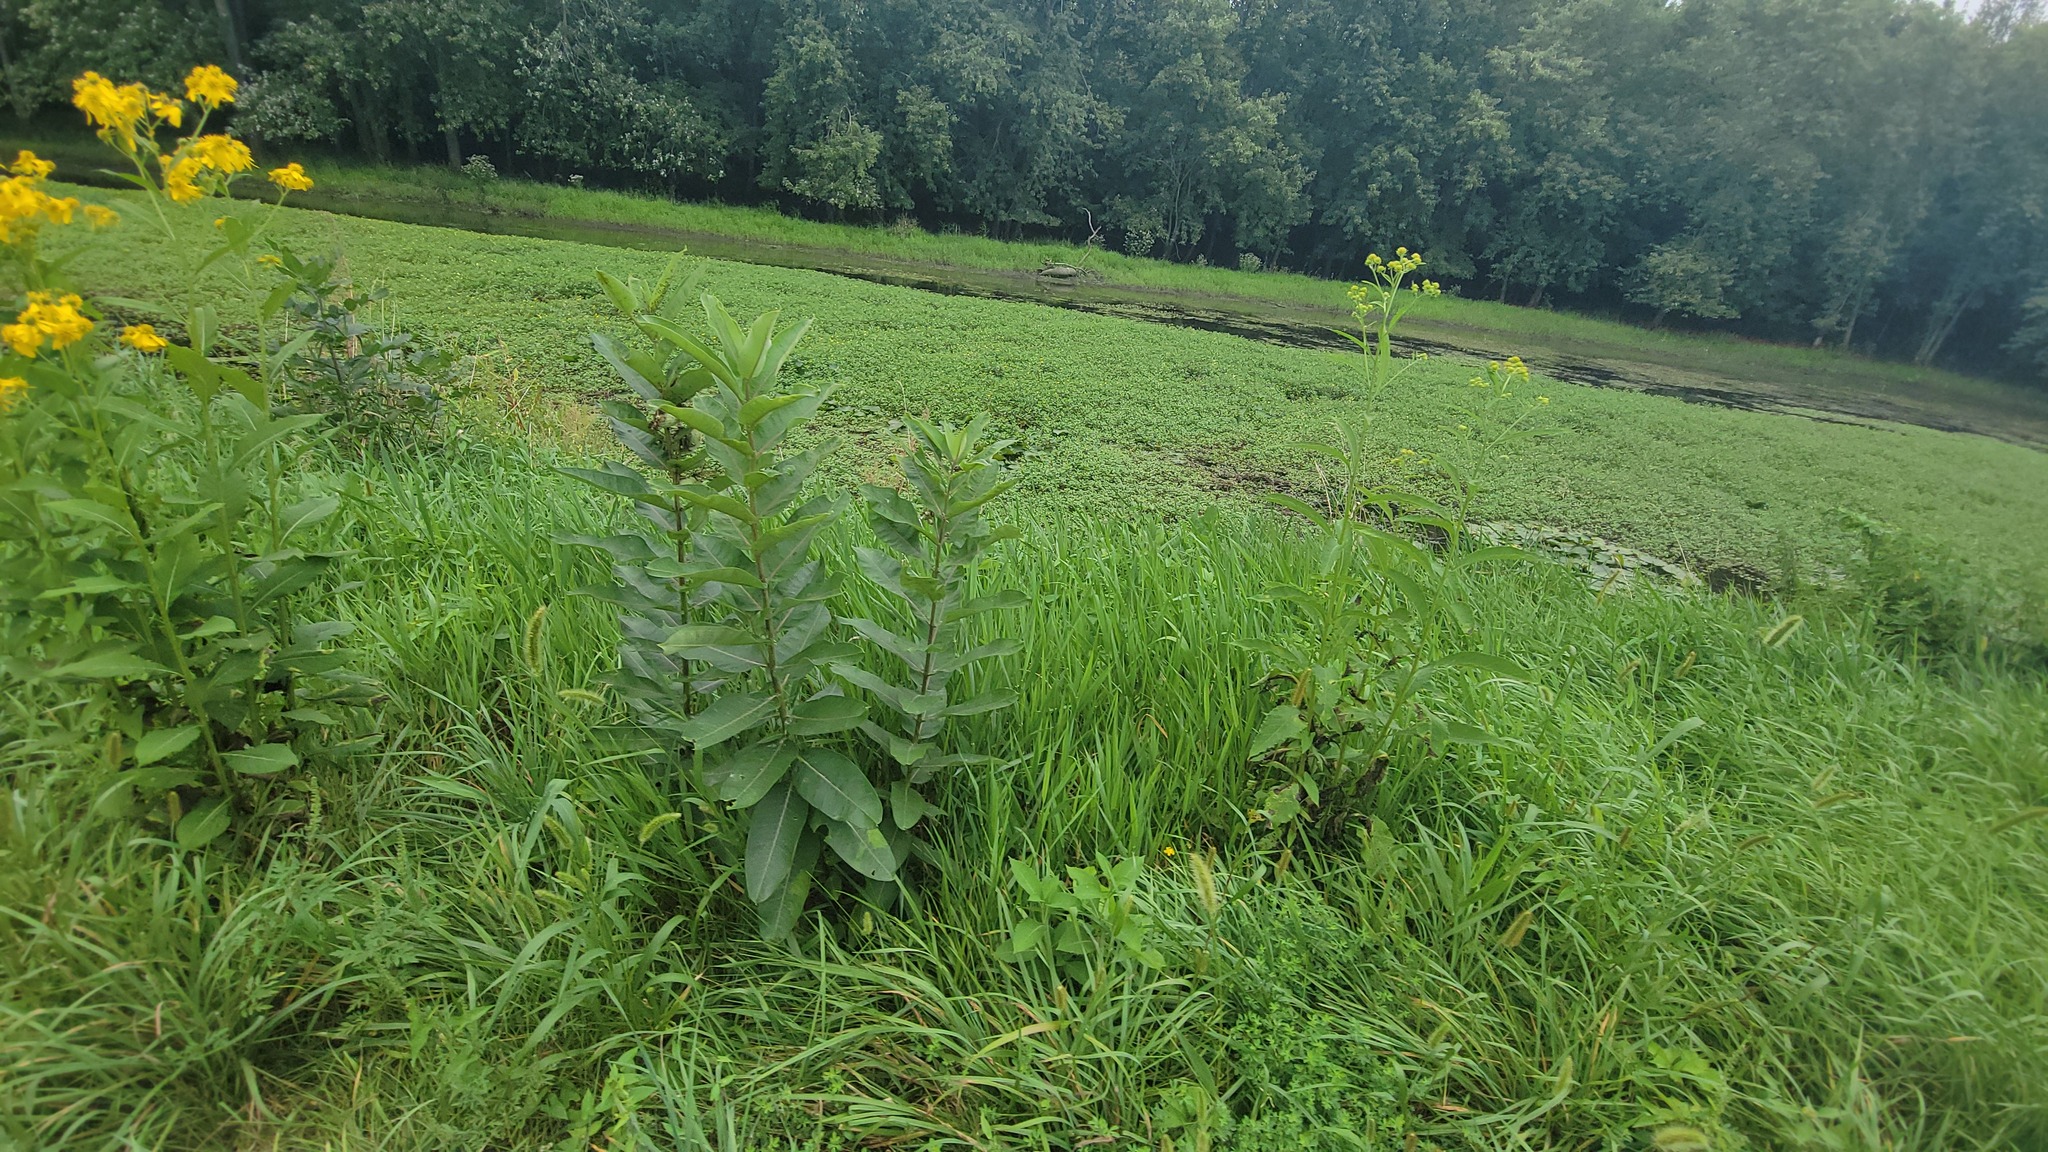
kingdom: Plantae
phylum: Tracheophyta
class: Magnoliopsida
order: Gentianales
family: Apocynaceae
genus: Asclepias
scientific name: Asclepias syriaca
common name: Common milkweed
